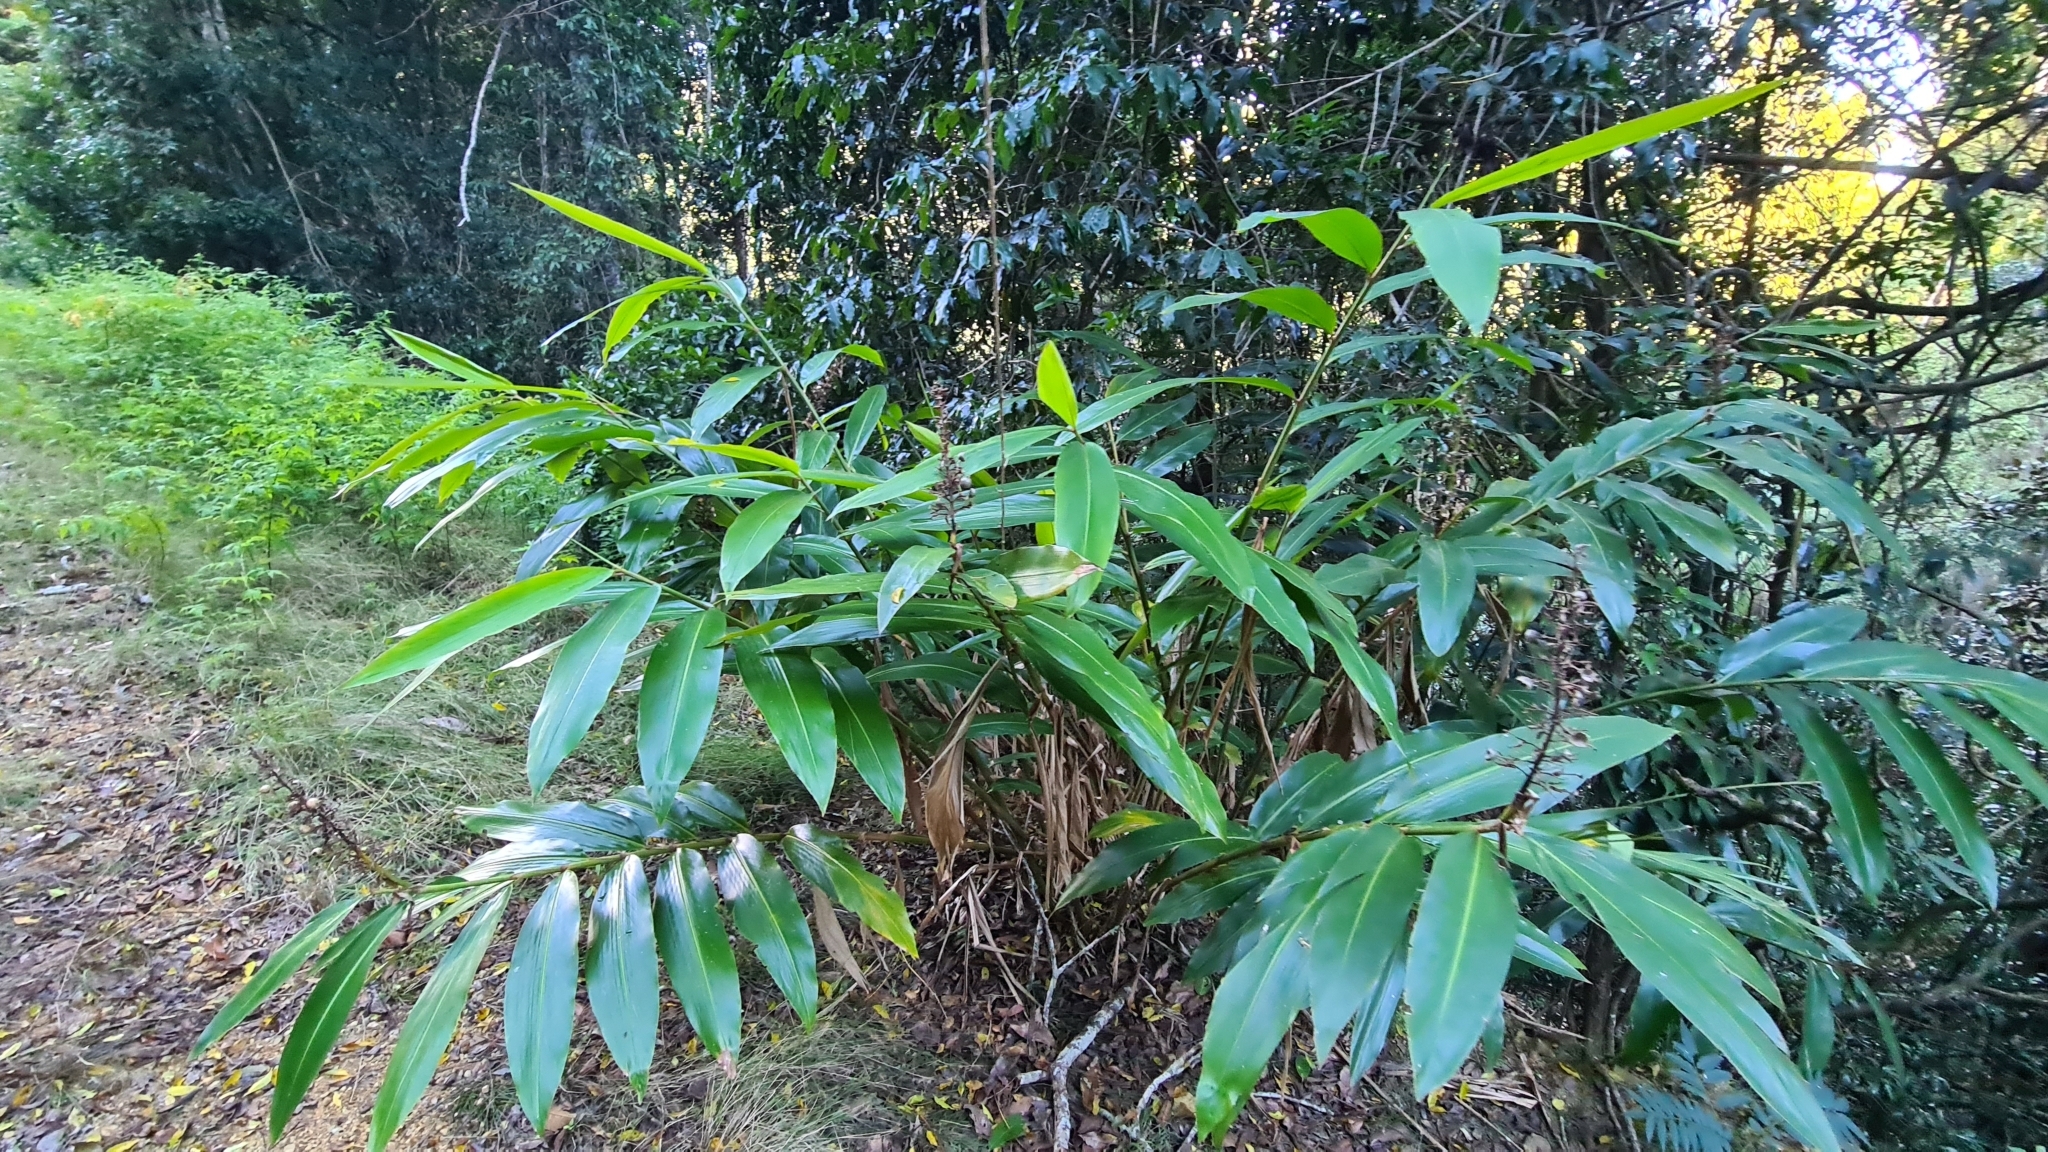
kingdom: Plantae
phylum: Tracheophyta
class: Liliopsida
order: Zingiberales
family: Zingiberaceae
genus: Alpinia
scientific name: Alpinia caerulea
